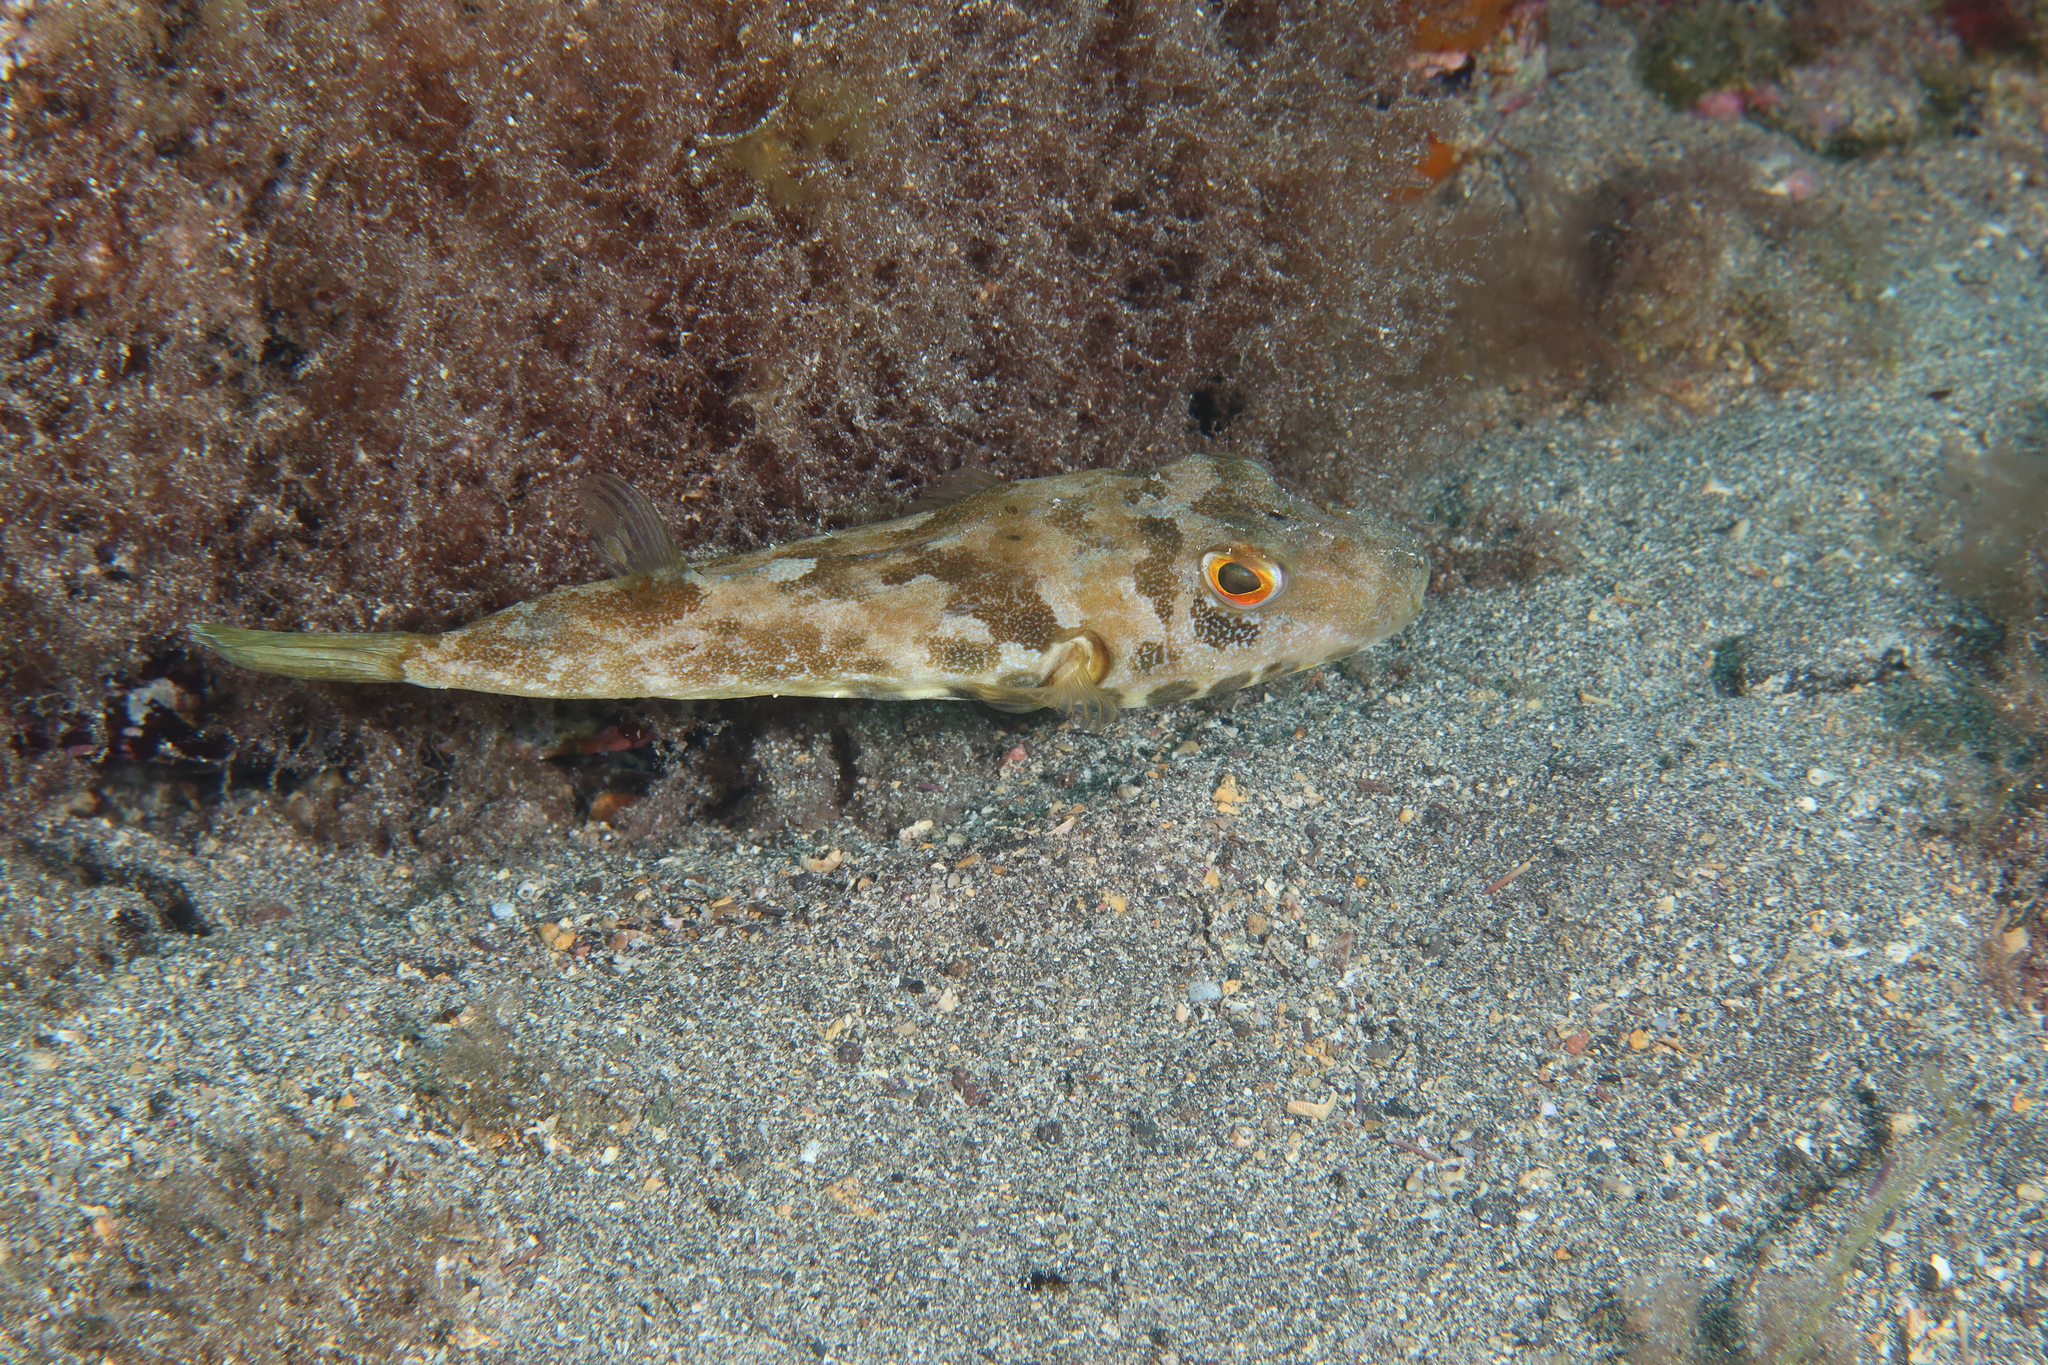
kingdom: Animalia
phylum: Chordata
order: Tetraodontiformes
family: Tetraodontidae
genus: Sphoeroides
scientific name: Sphoeroides marmoratus
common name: Guinean puffer
